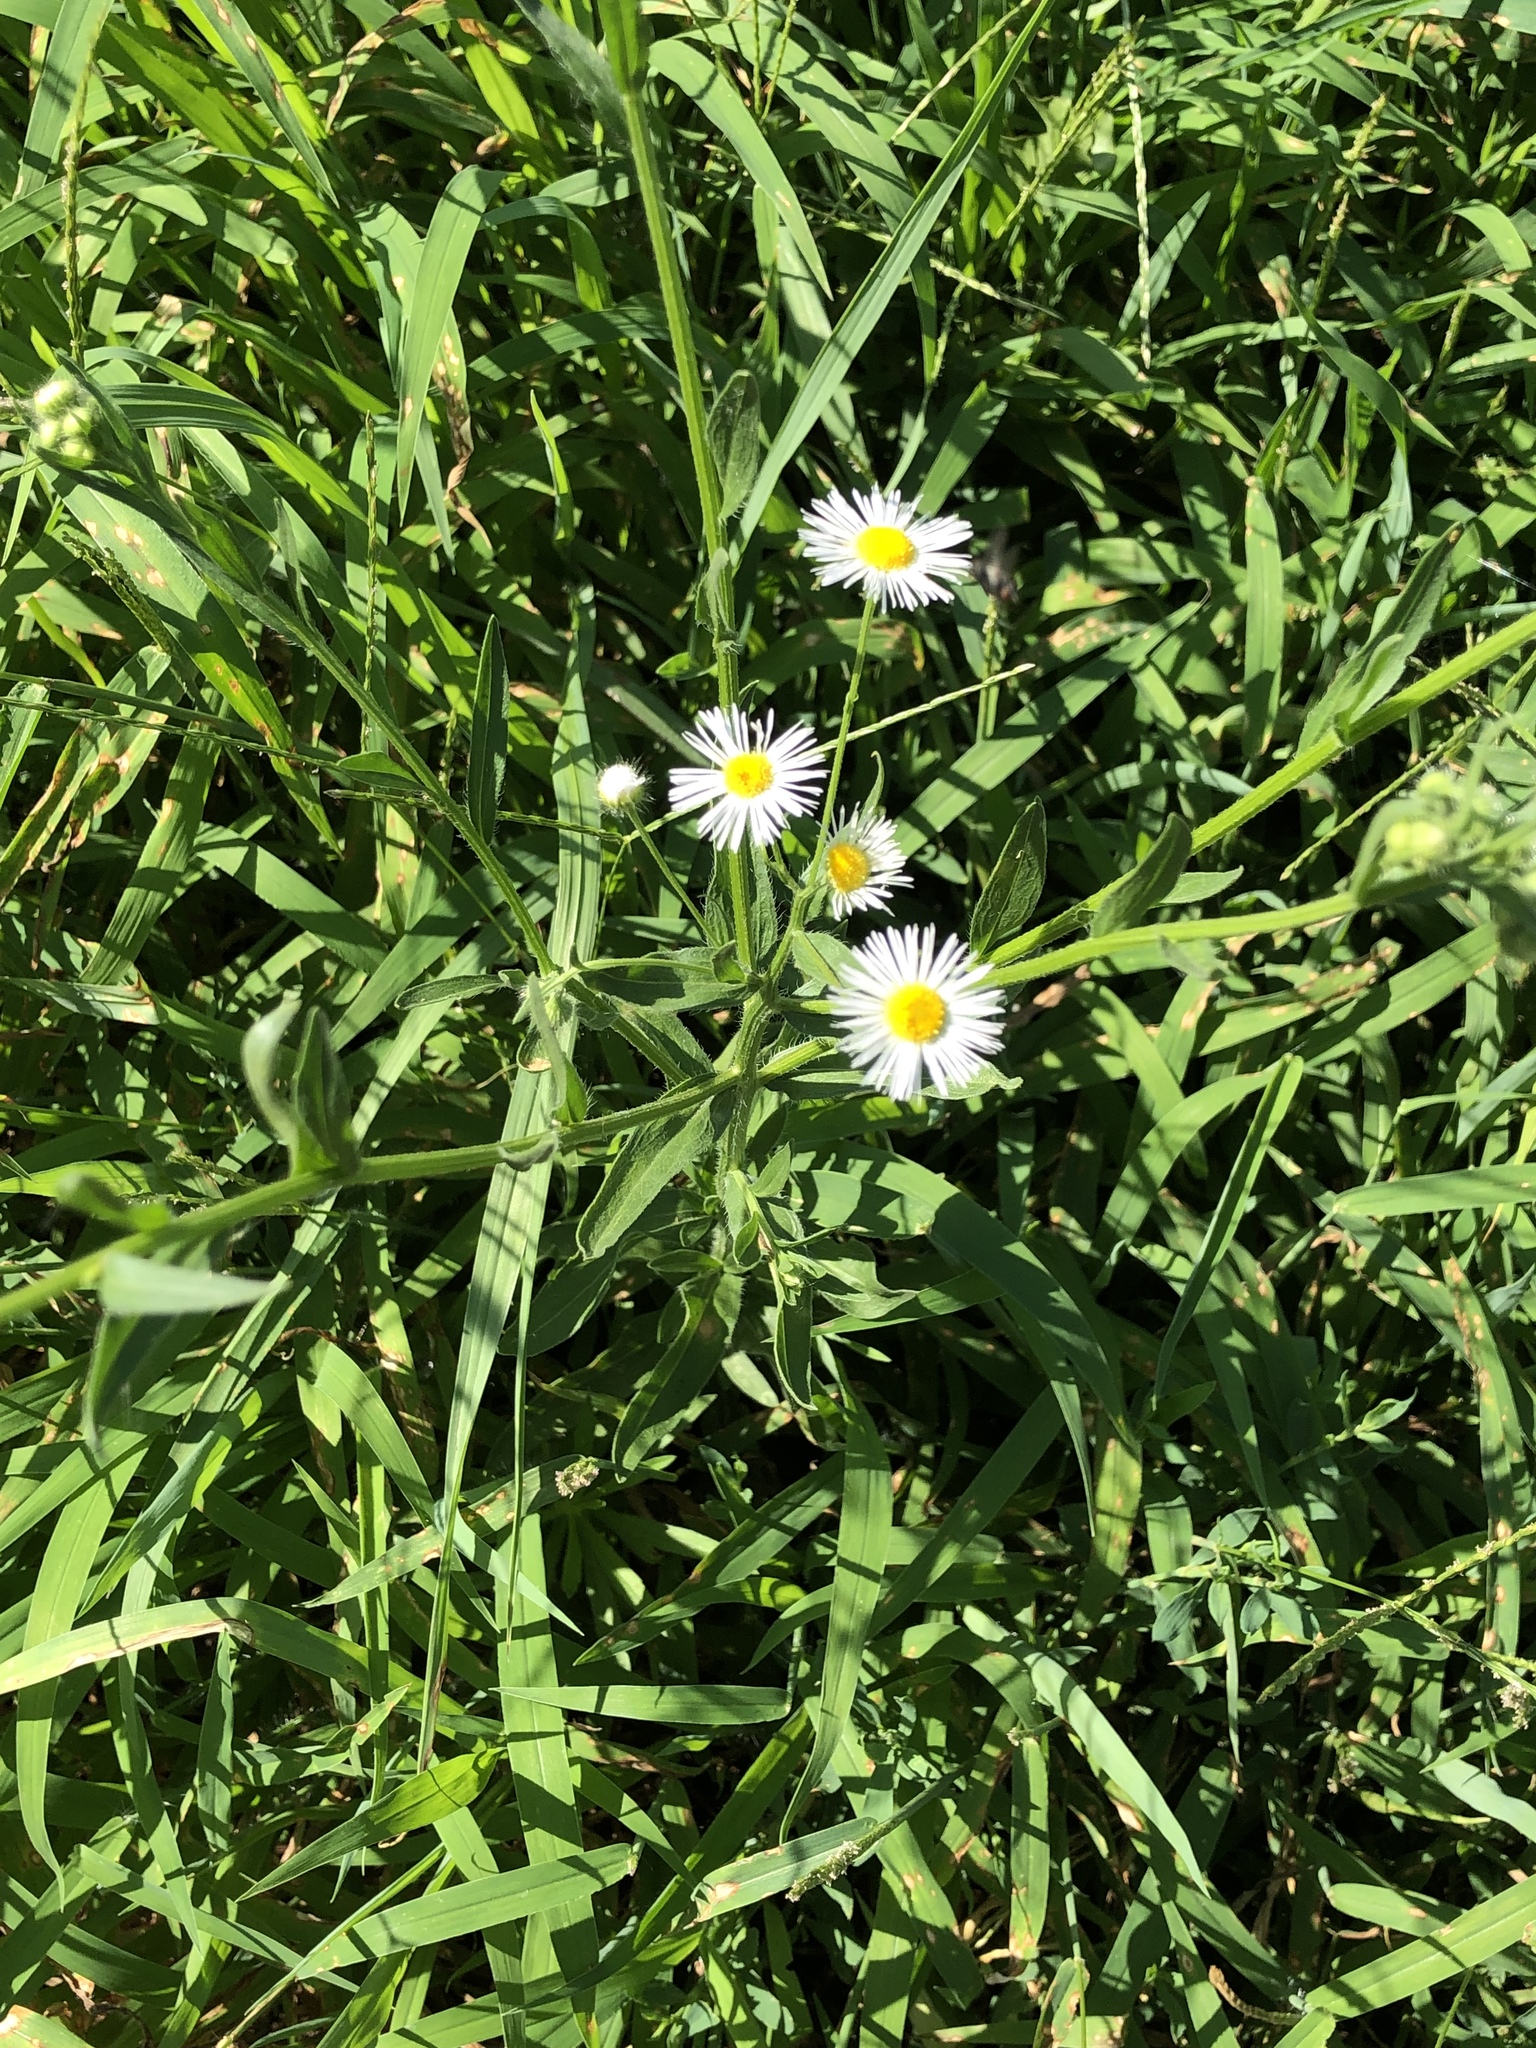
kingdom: Plantae
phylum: Tracheophyta
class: Magnoliopsida
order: Asterales
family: Asteraceae
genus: Erigeron
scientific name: Erigeron strigosus
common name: Common eastern fleabane
